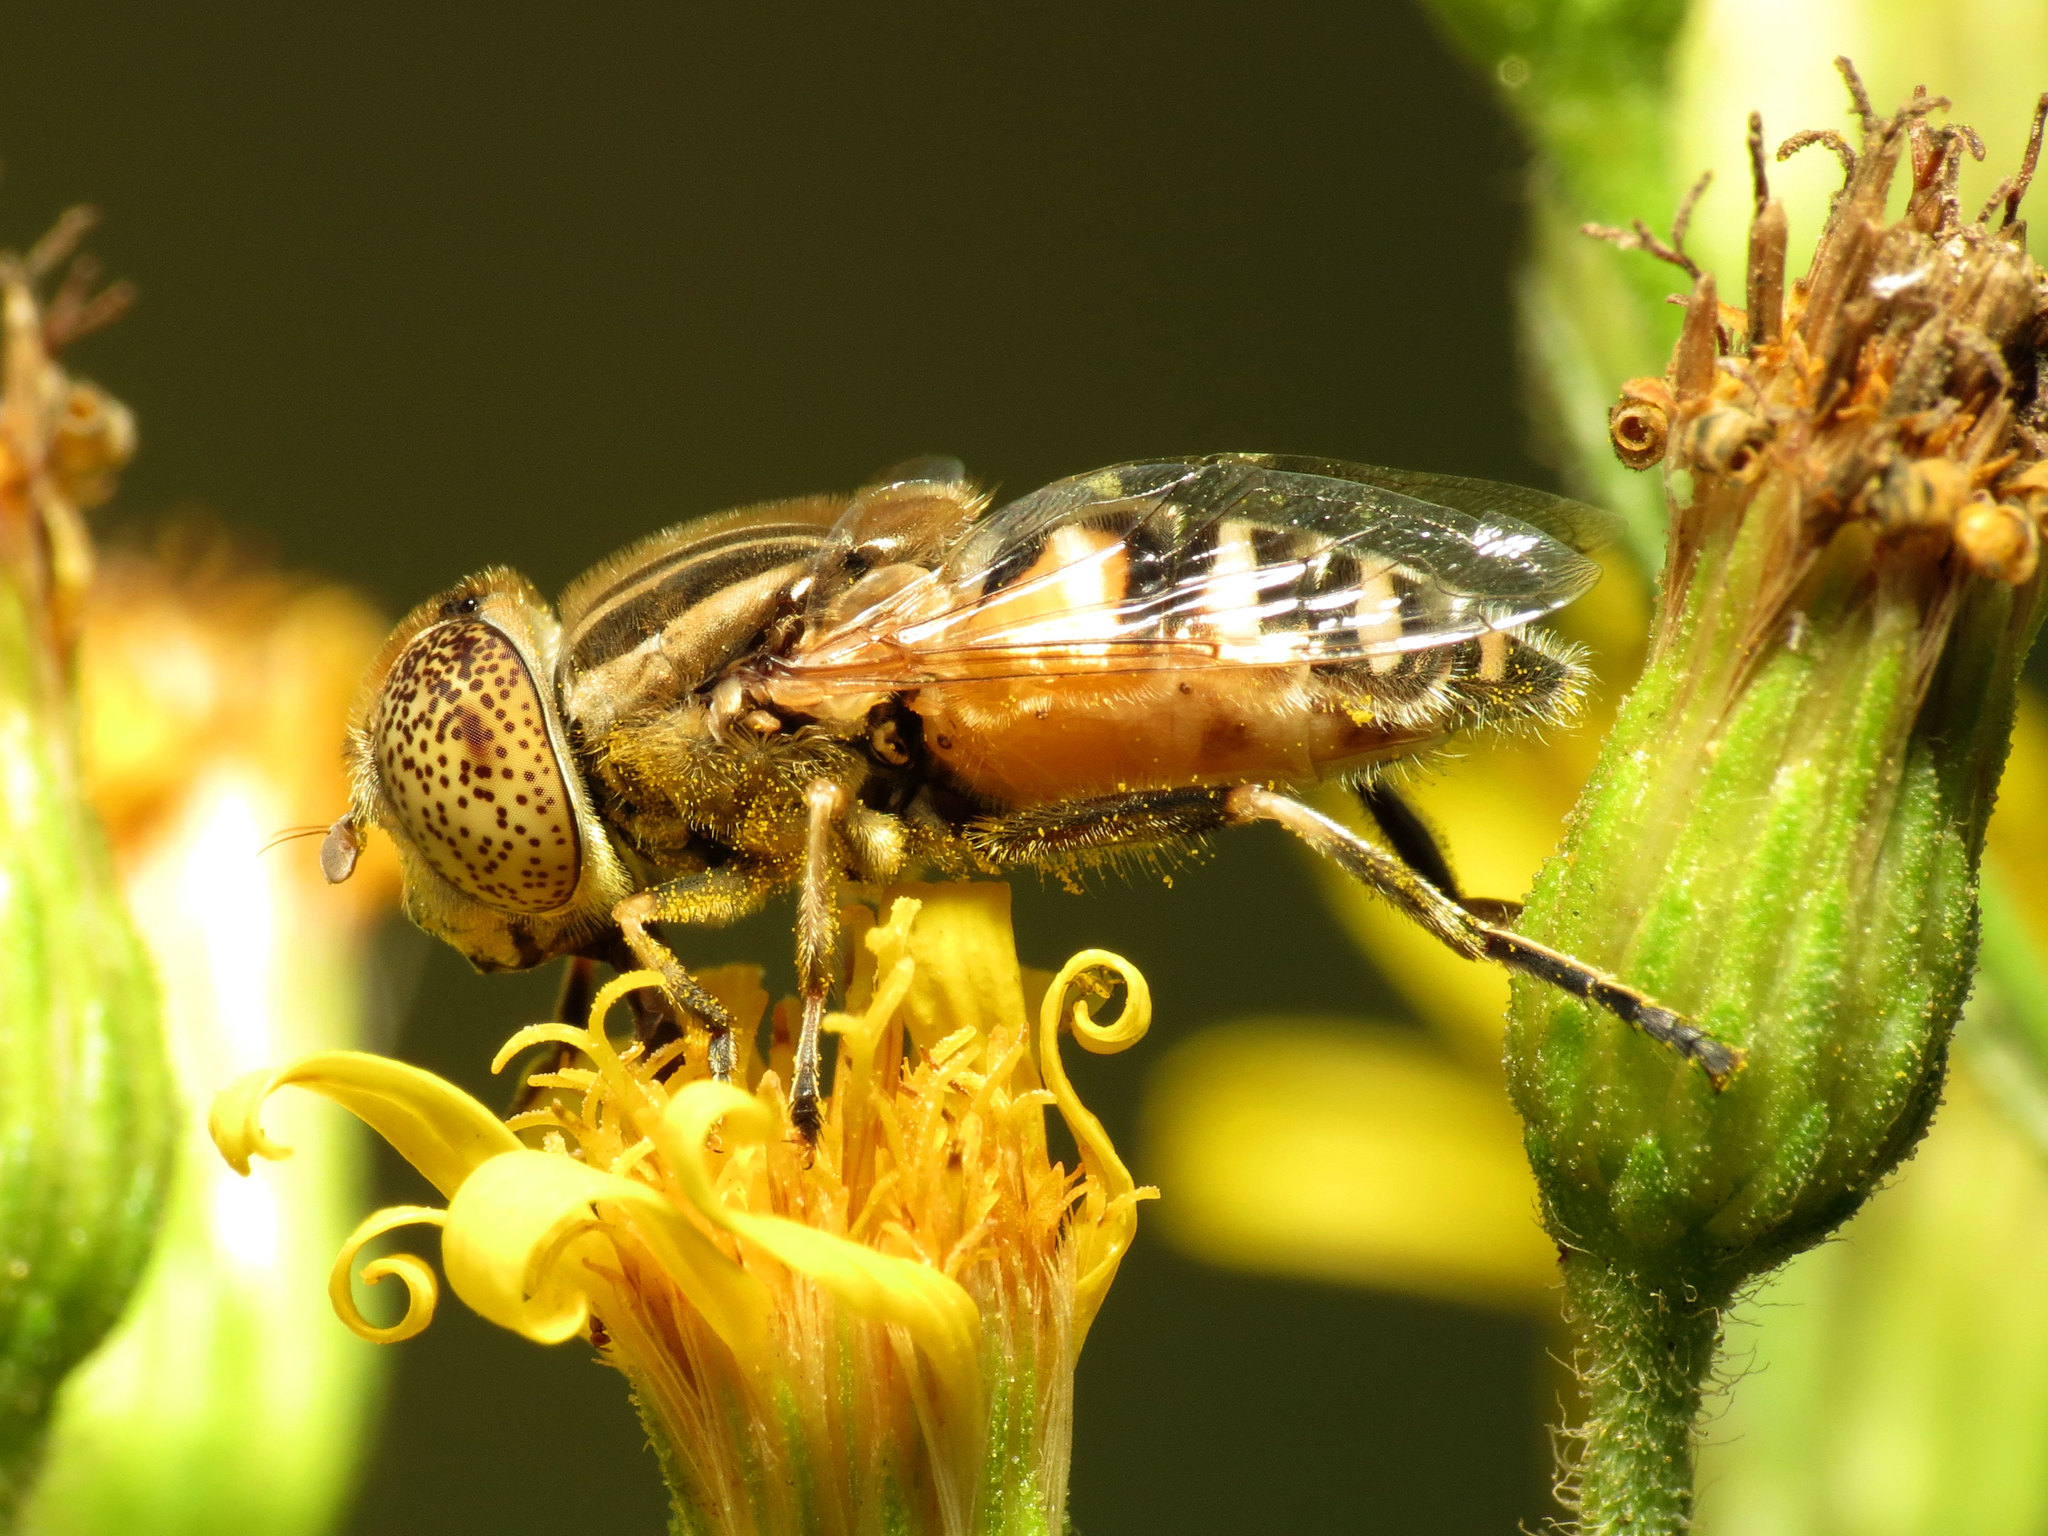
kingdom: Animalia
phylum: Arthropoda
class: Insecta
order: Diptera
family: Syrphidae
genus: Eristalinus
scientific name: Eristalinus megacephalus
